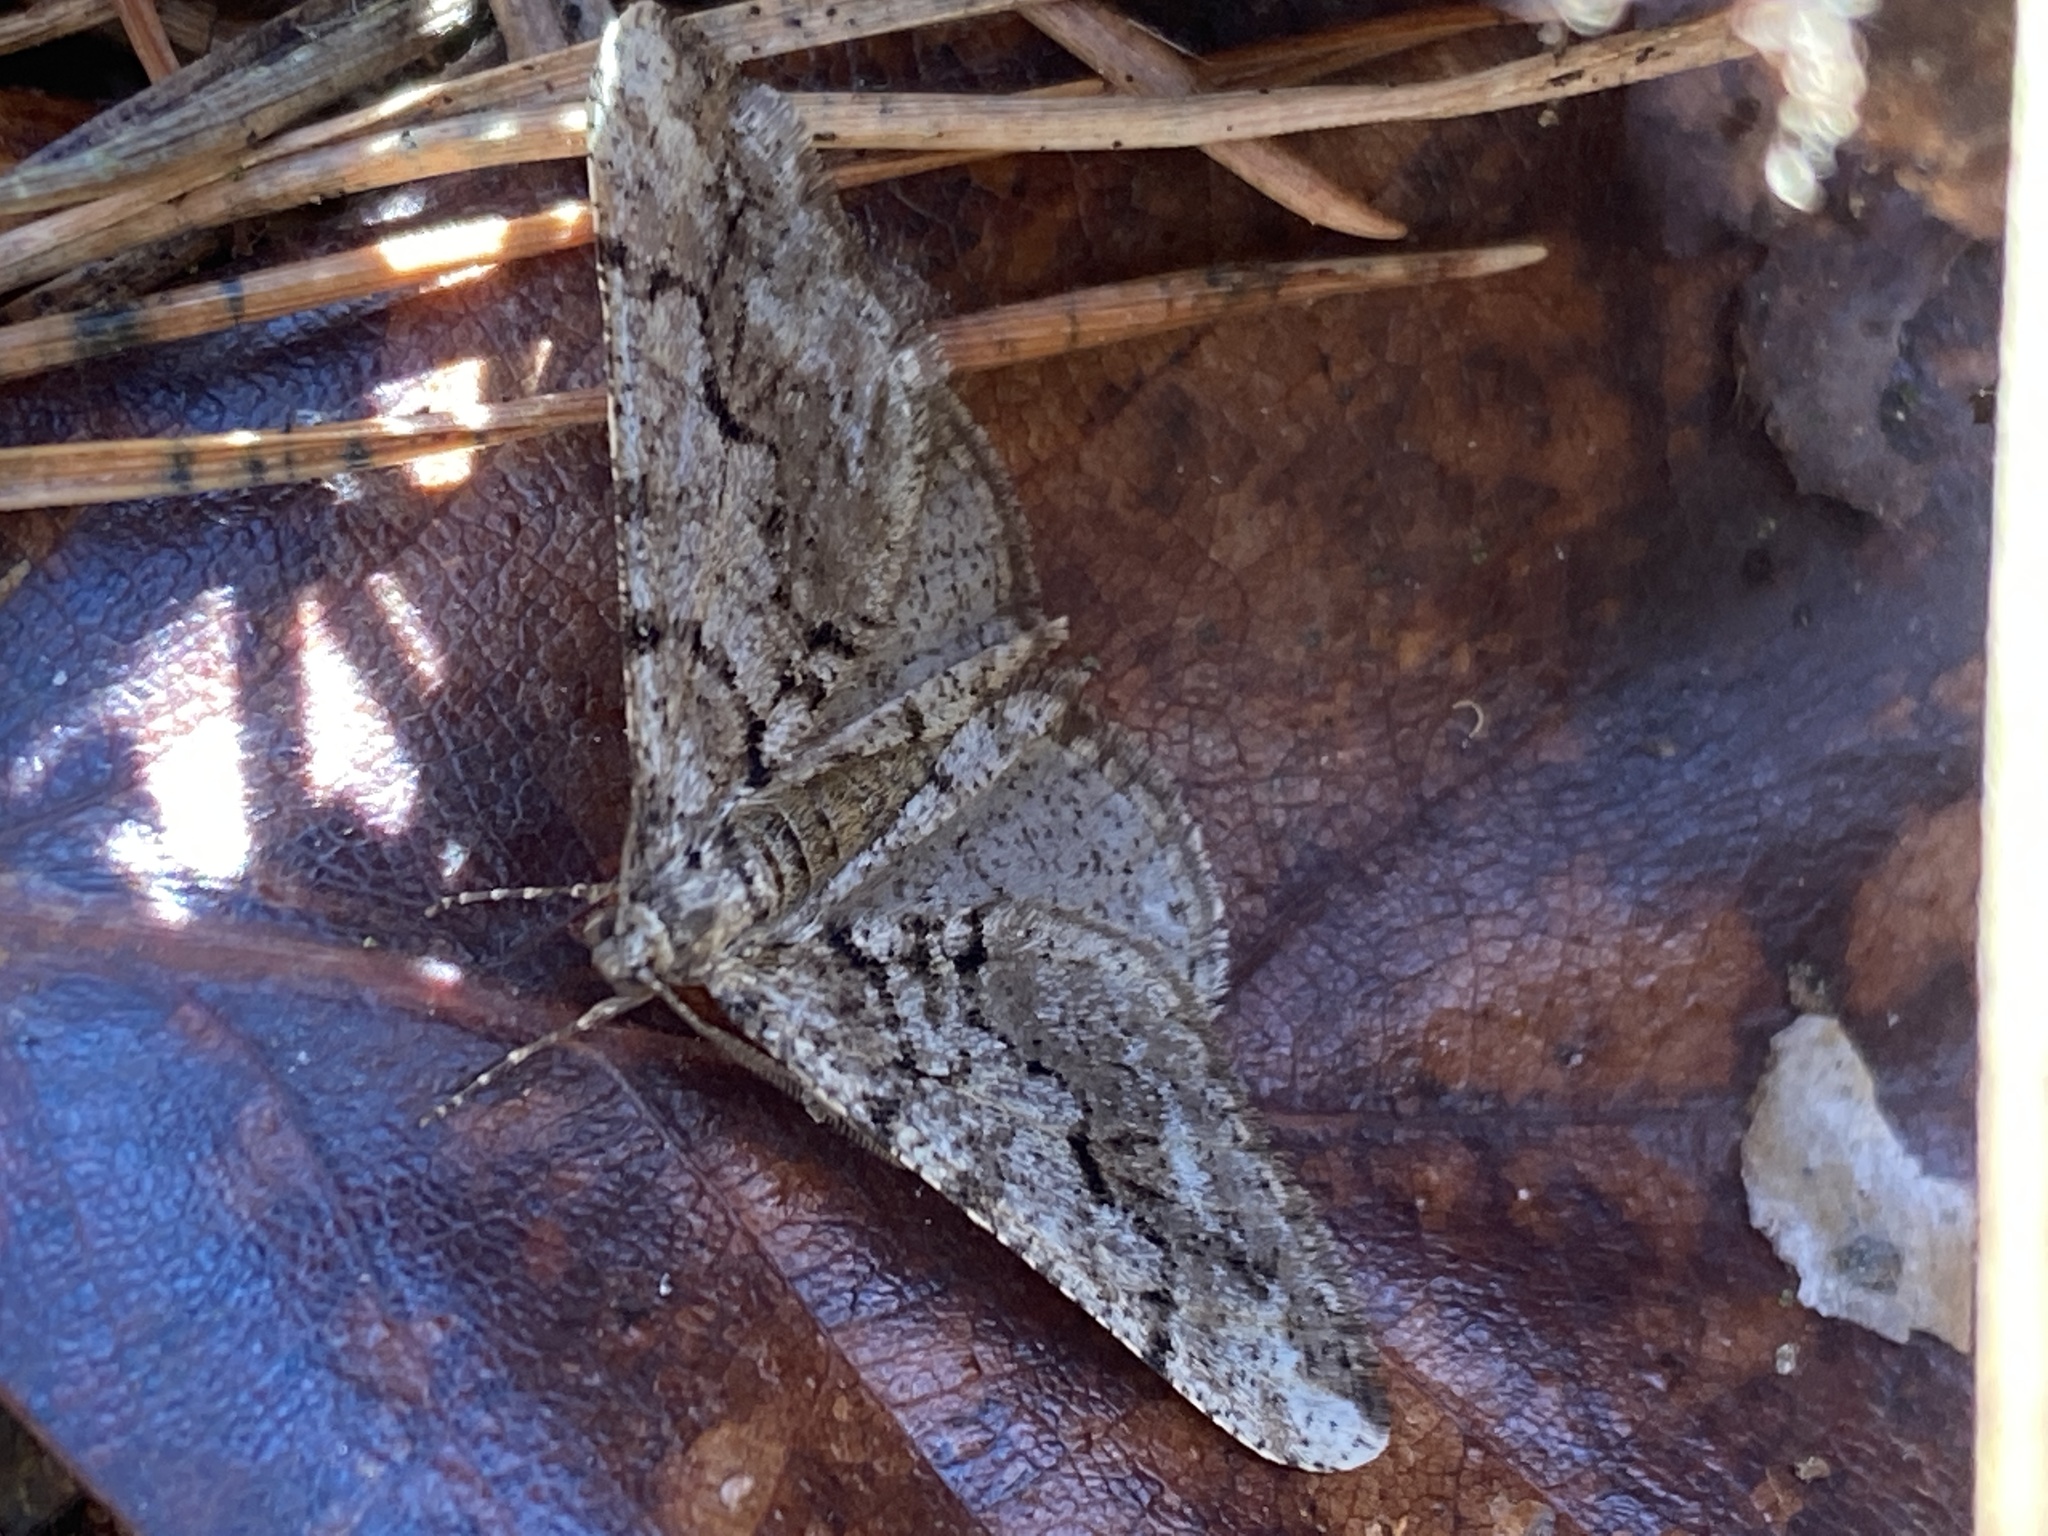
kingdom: Animalia
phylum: Arthropoda
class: Insecta
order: Lepidoptera
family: Geometridae
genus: Agriopis
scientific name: Agriopis leucophaearia
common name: Spring usher
